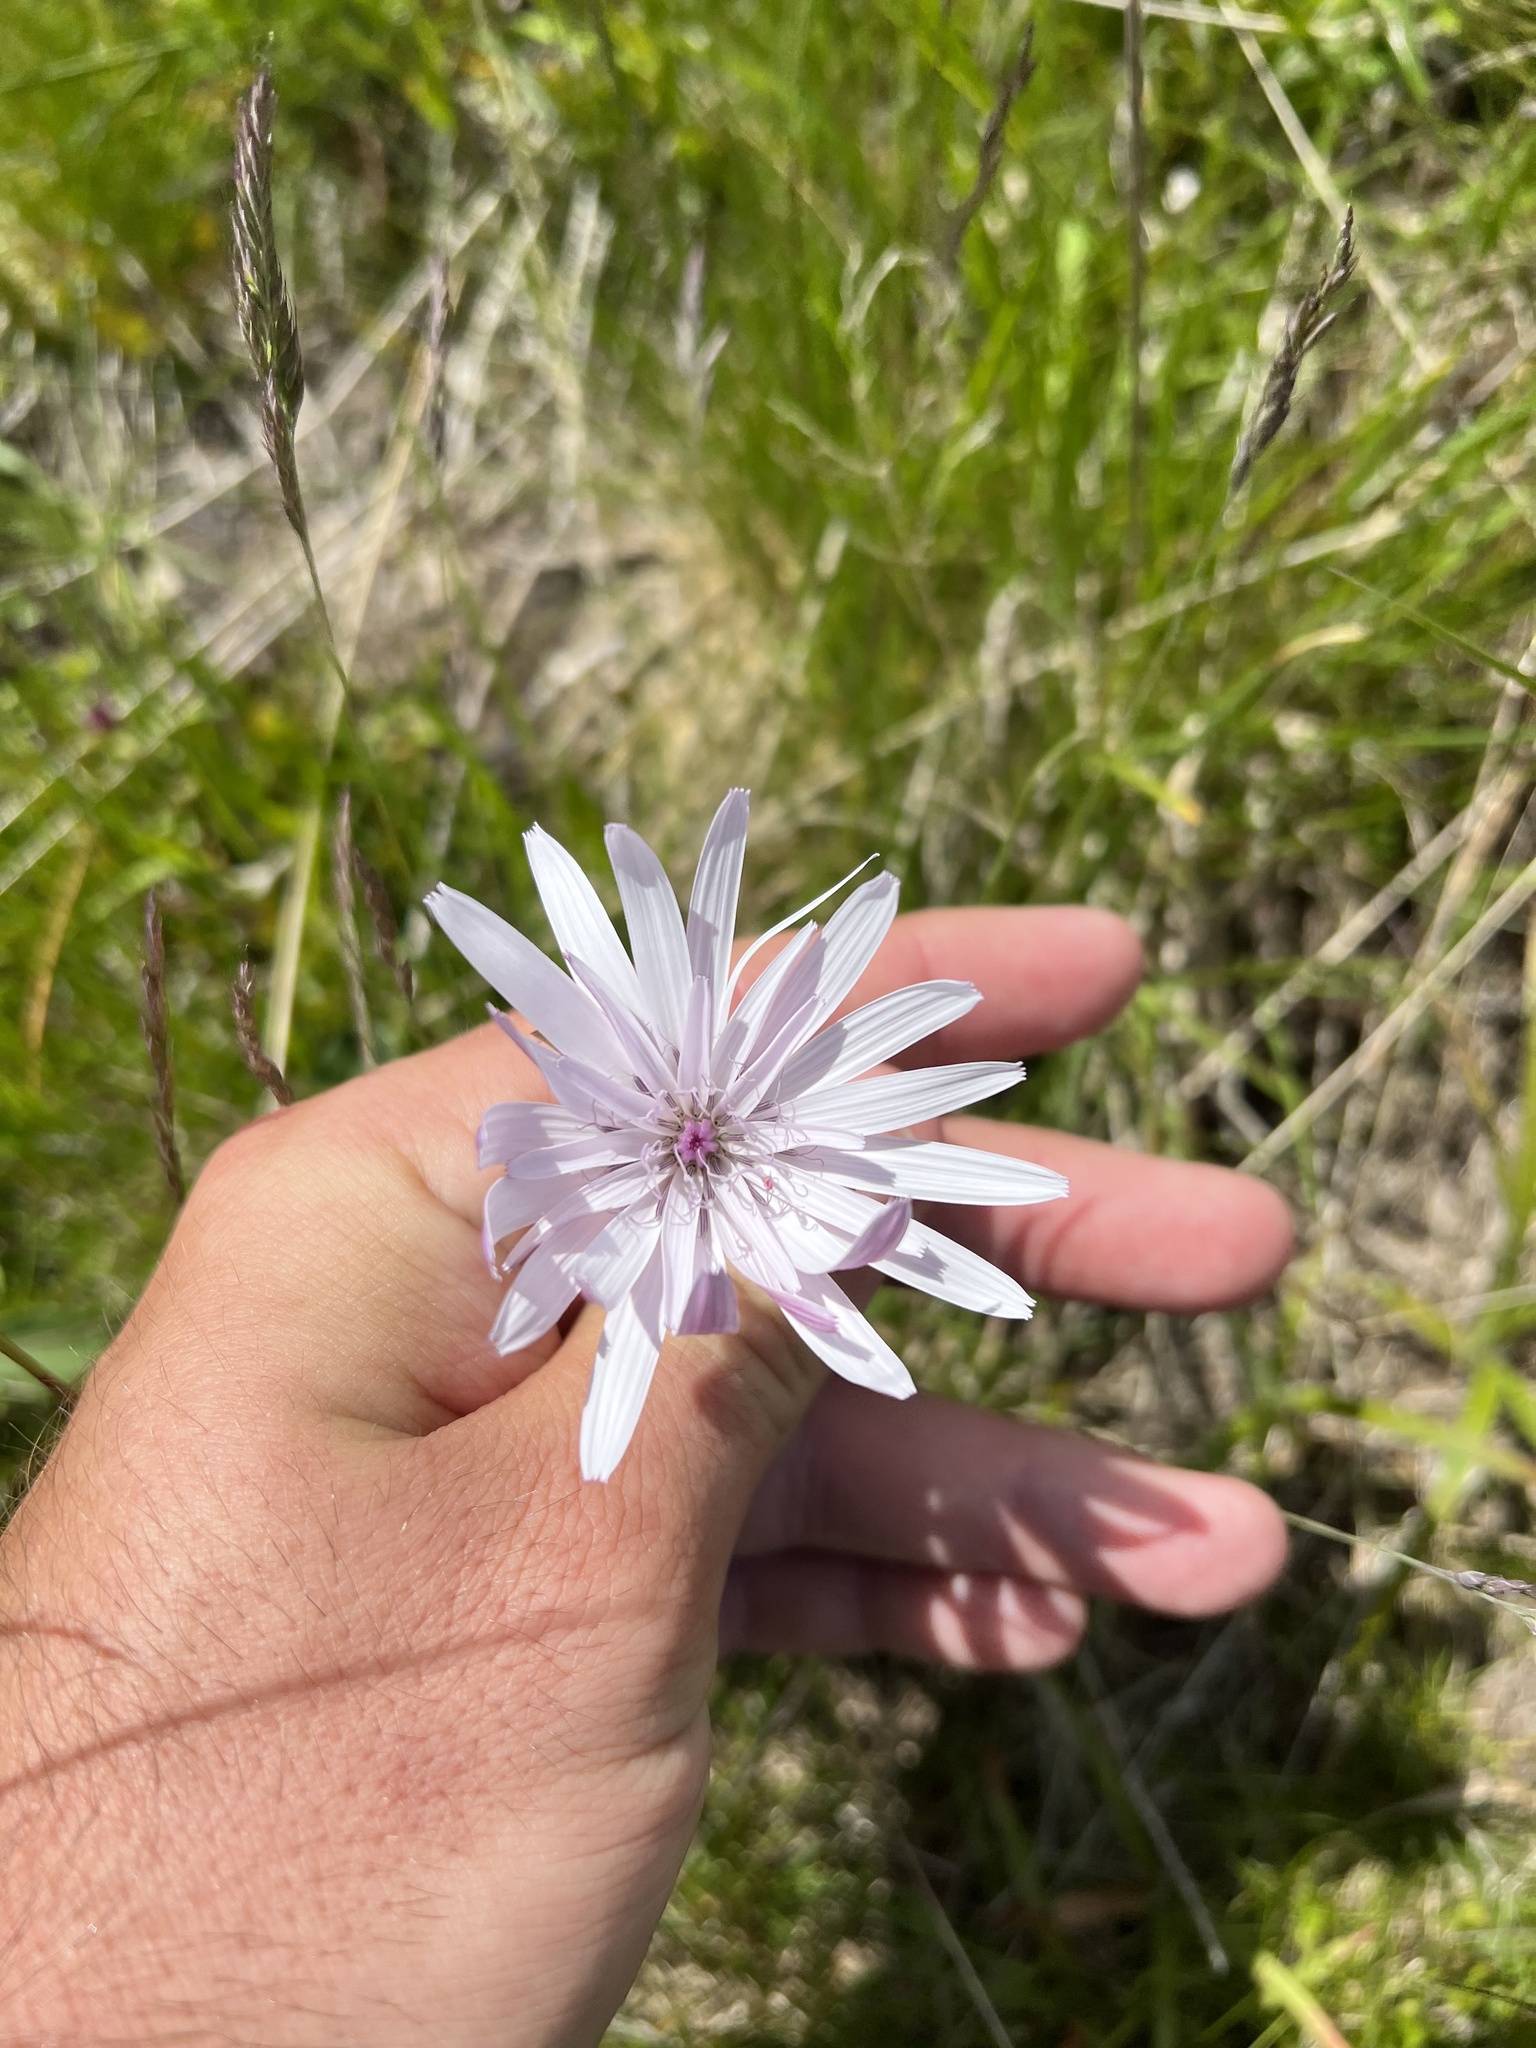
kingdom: Plantae
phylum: Tracheophyta
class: Magnoliopsida
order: Asterales
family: Asteraceae
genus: Scorzonera
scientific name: Scorzonera rosea
